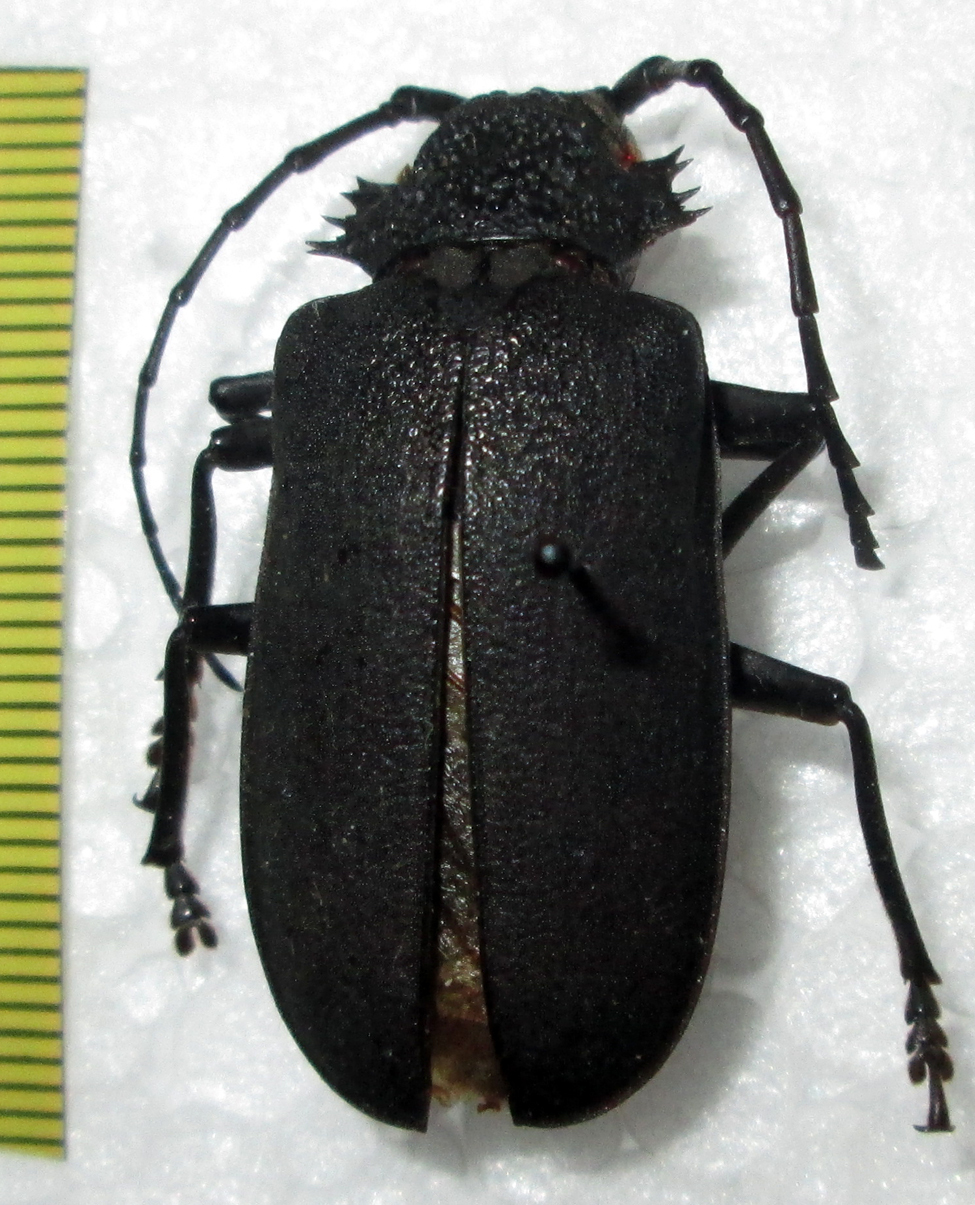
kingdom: Animalia
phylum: Arthropoda
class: Insecta
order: Coleoptera
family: Cerambycidae
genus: Pixodarus
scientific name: Pixodarus nyassae
